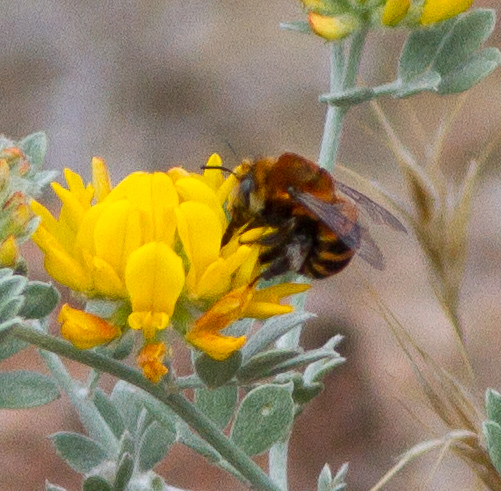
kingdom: Animalia
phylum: Arthropoda
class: Insecta
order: Hymenoptera
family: Apidae
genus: Anthophora
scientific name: Anthophora urbana
